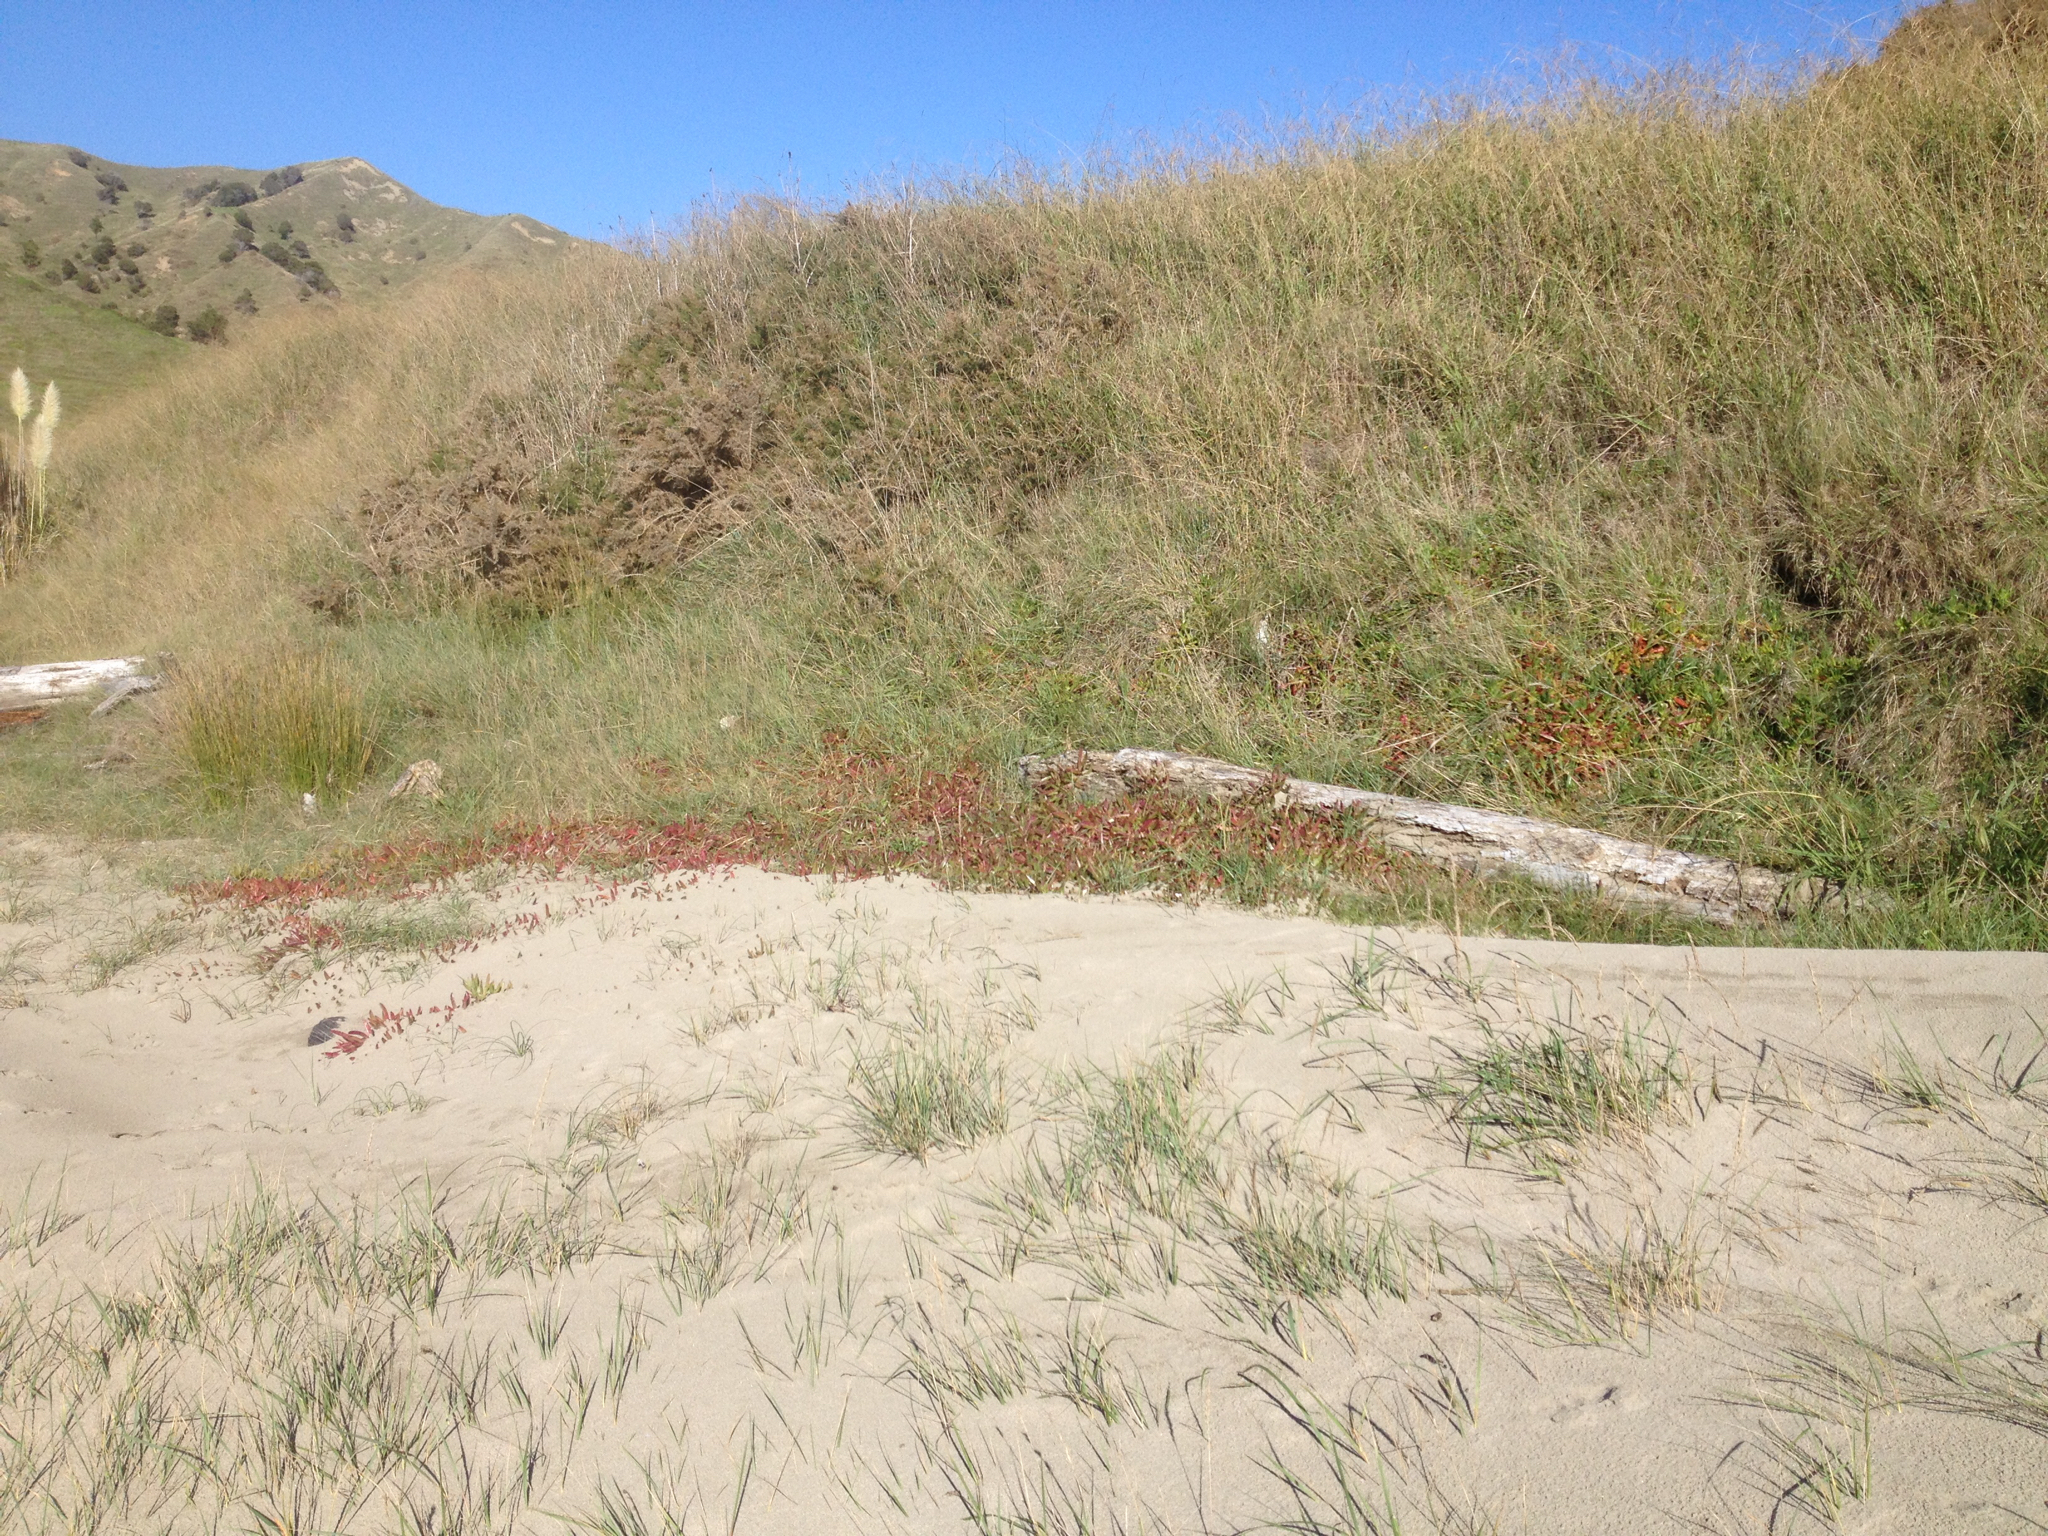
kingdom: Plantae
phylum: Tracheophyta
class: Magnoliopsida
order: Caryophyllales
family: Aizoaceae
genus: Carpobrotus
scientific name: Carpobrotus edulis
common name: Hottentot-fig
